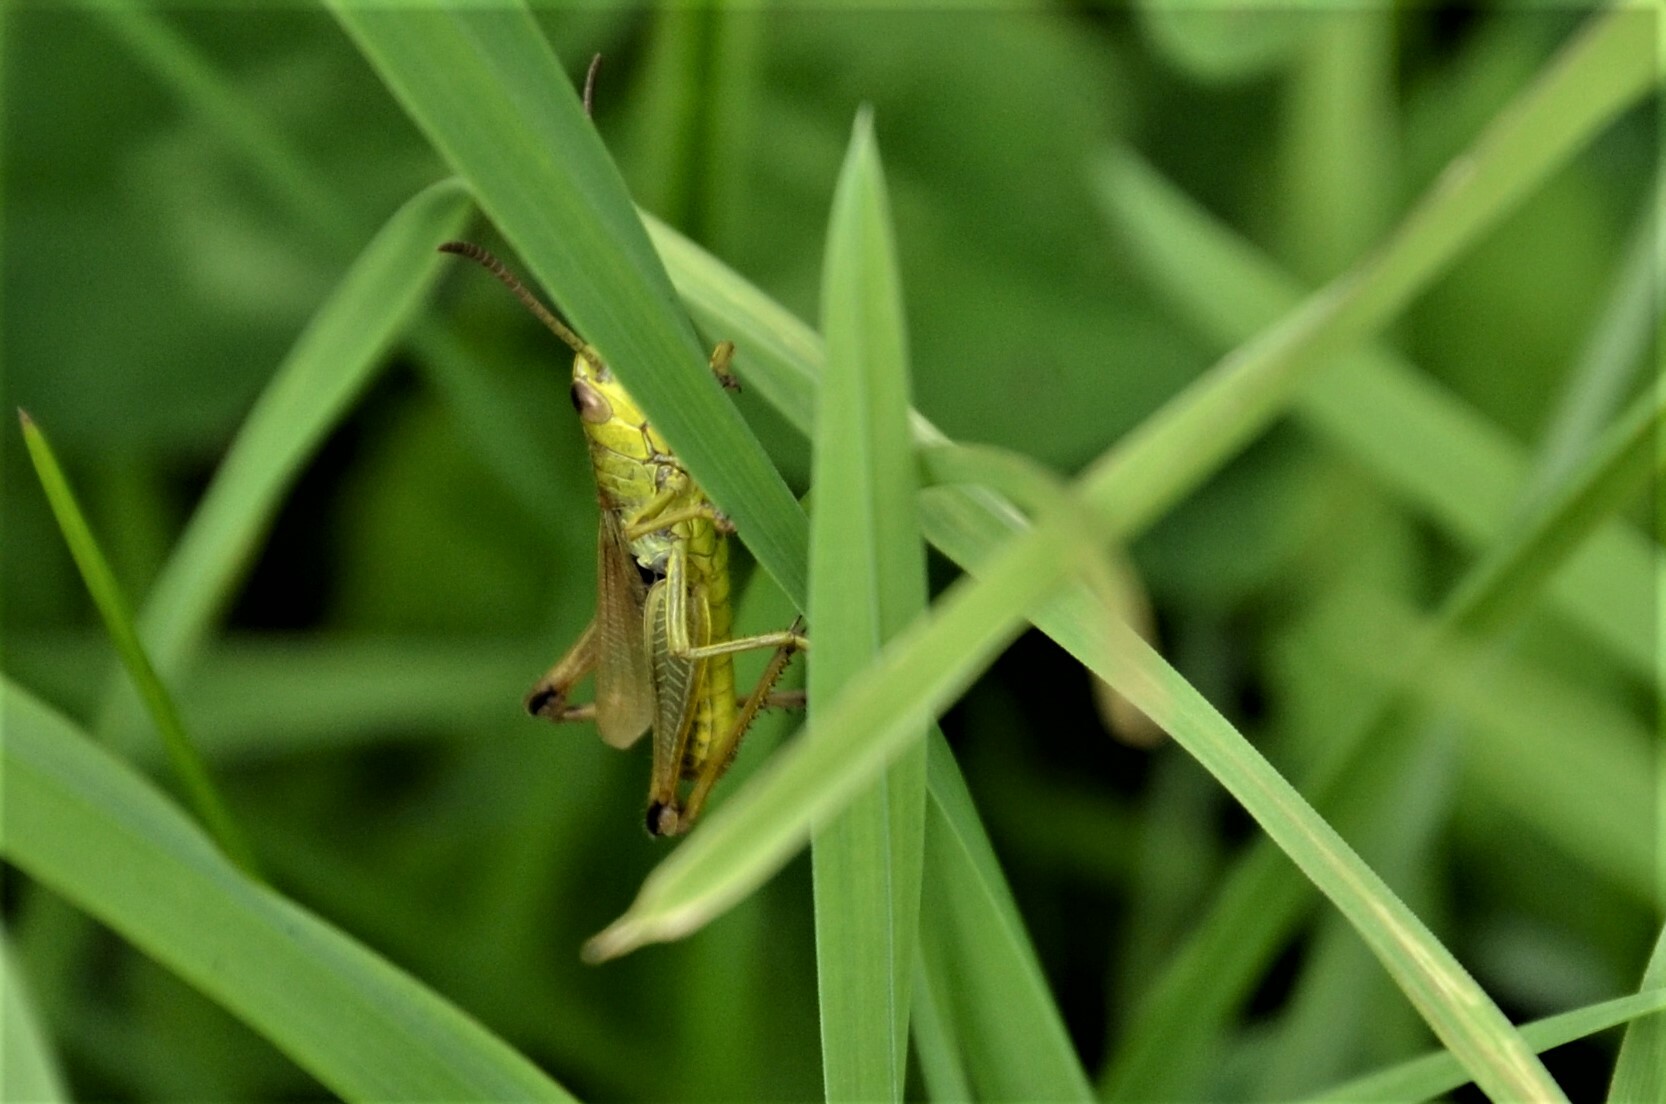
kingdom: Animalia
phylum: Arthropoda
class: Insecta
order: Orthoptera
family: Acrididae
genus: Pseudochorthippus
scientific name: Pseudochorthippus parallelus
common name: Meadow grasshopper
